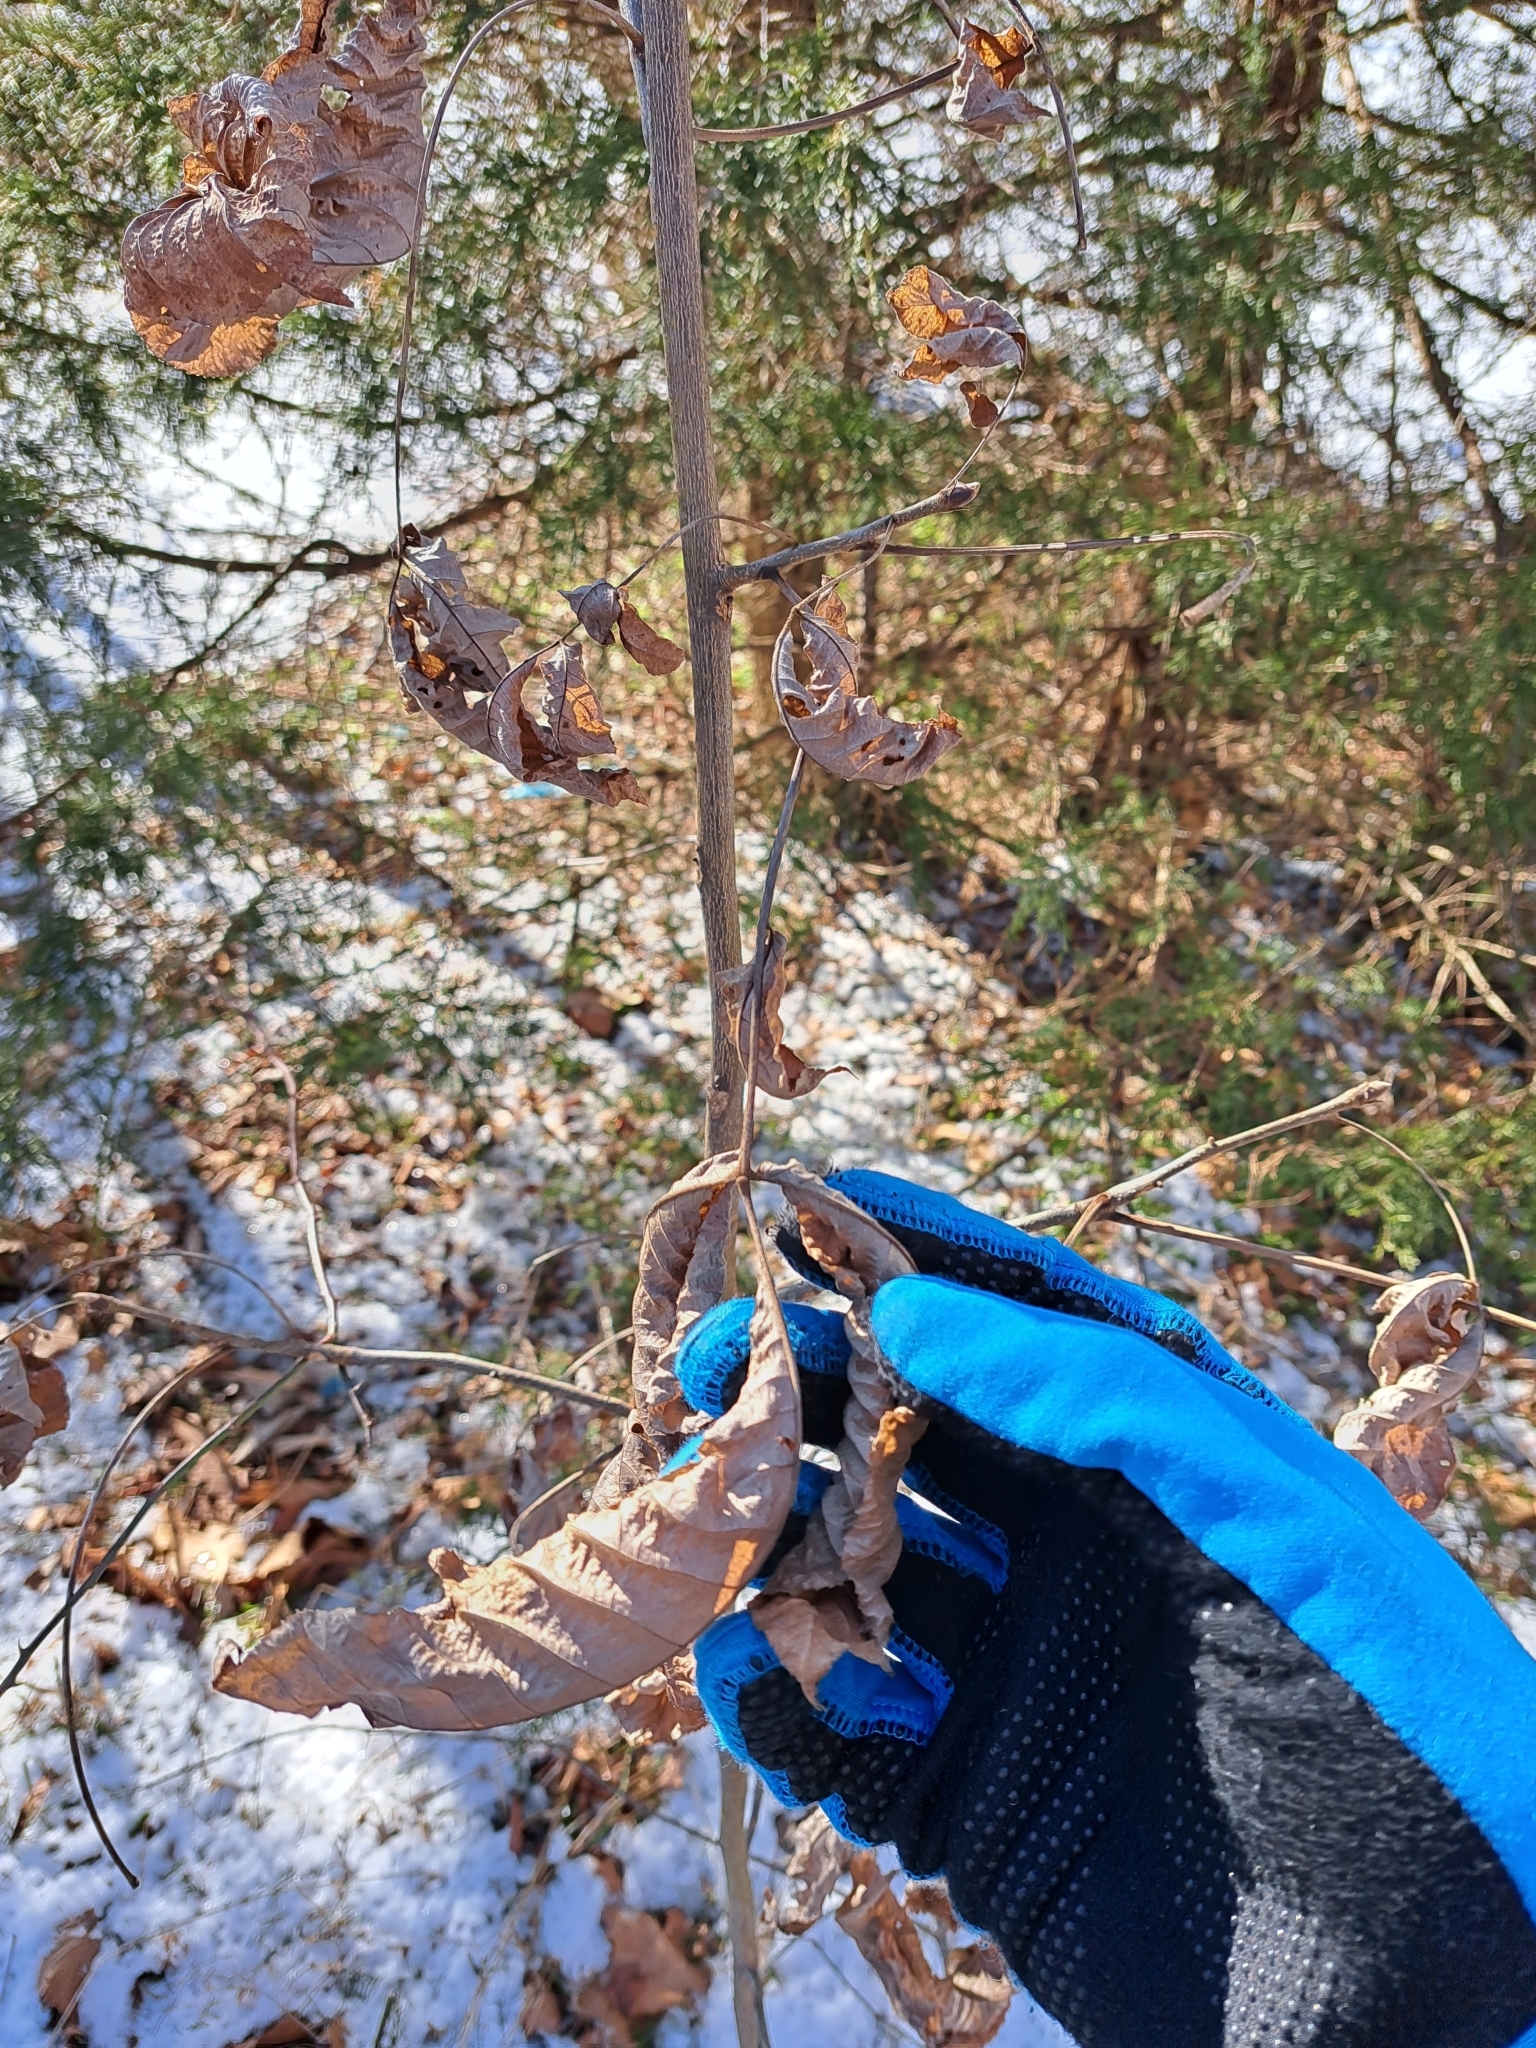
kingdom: Plantae
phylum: Tracheophyta
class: Magnoliopsida
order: Fagales
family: Juglandaceae
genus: Carya
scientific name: Carya ovata
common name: Shagbark hickory
